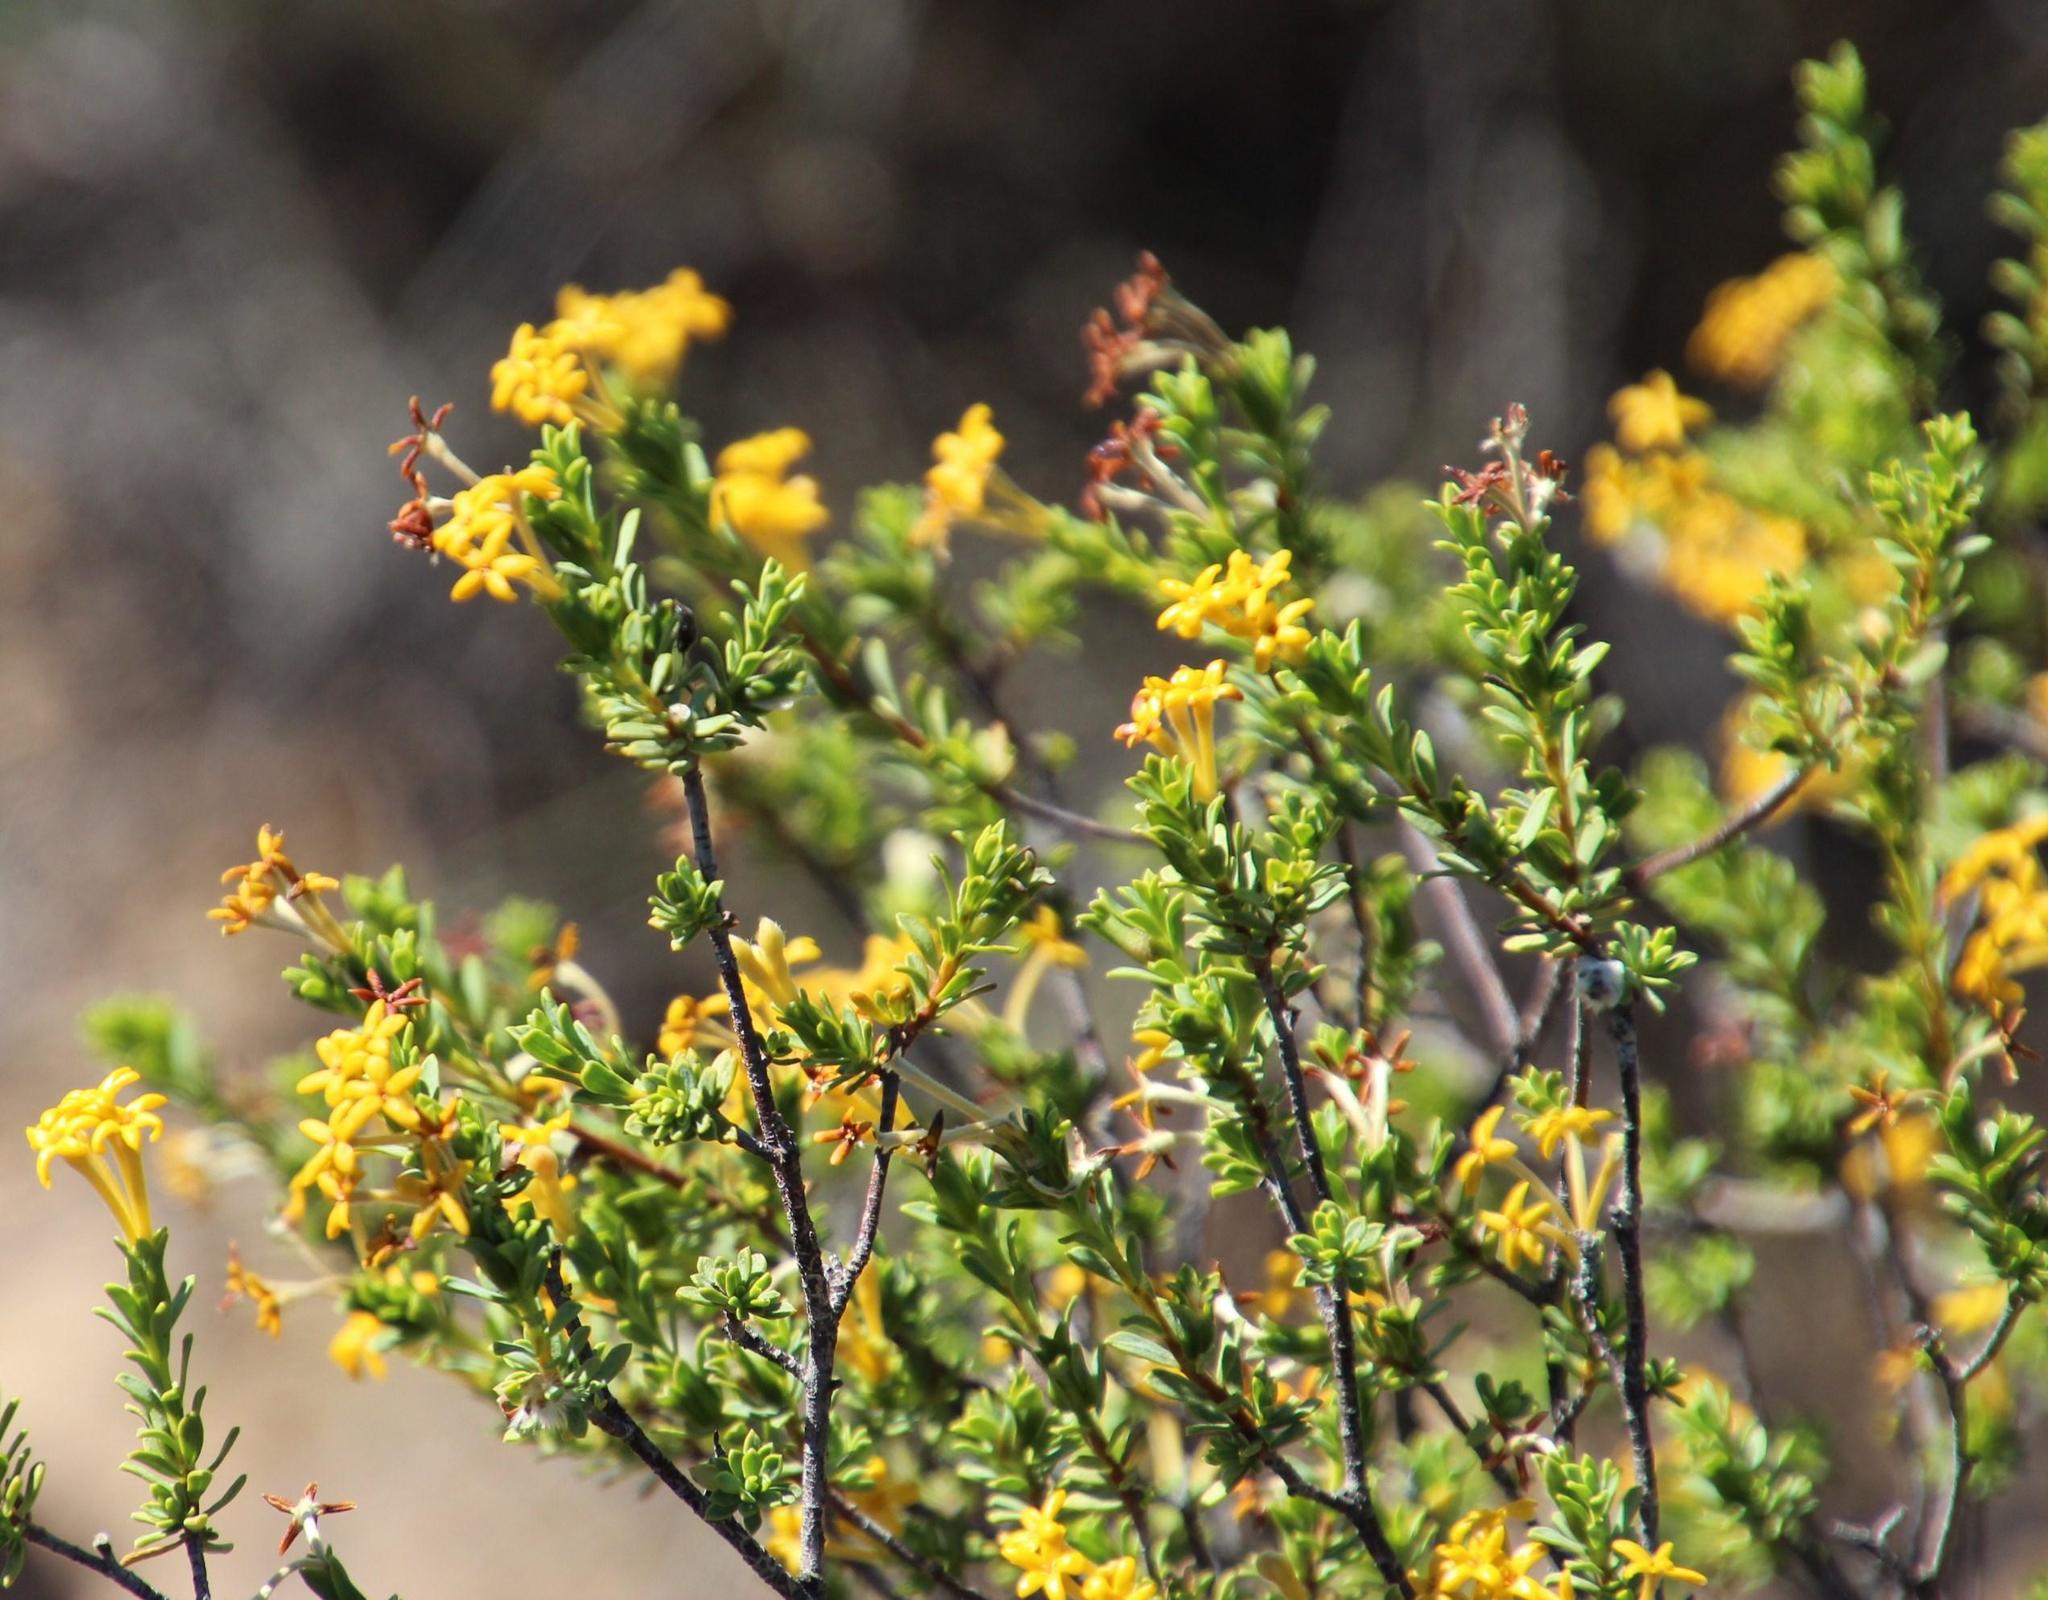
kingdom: Plantae
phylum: Tracheophyta
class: Magnoliopsida
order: Malvales
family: Thymelaeaceae
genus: Gnidia
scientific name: Gnidia deserticola
